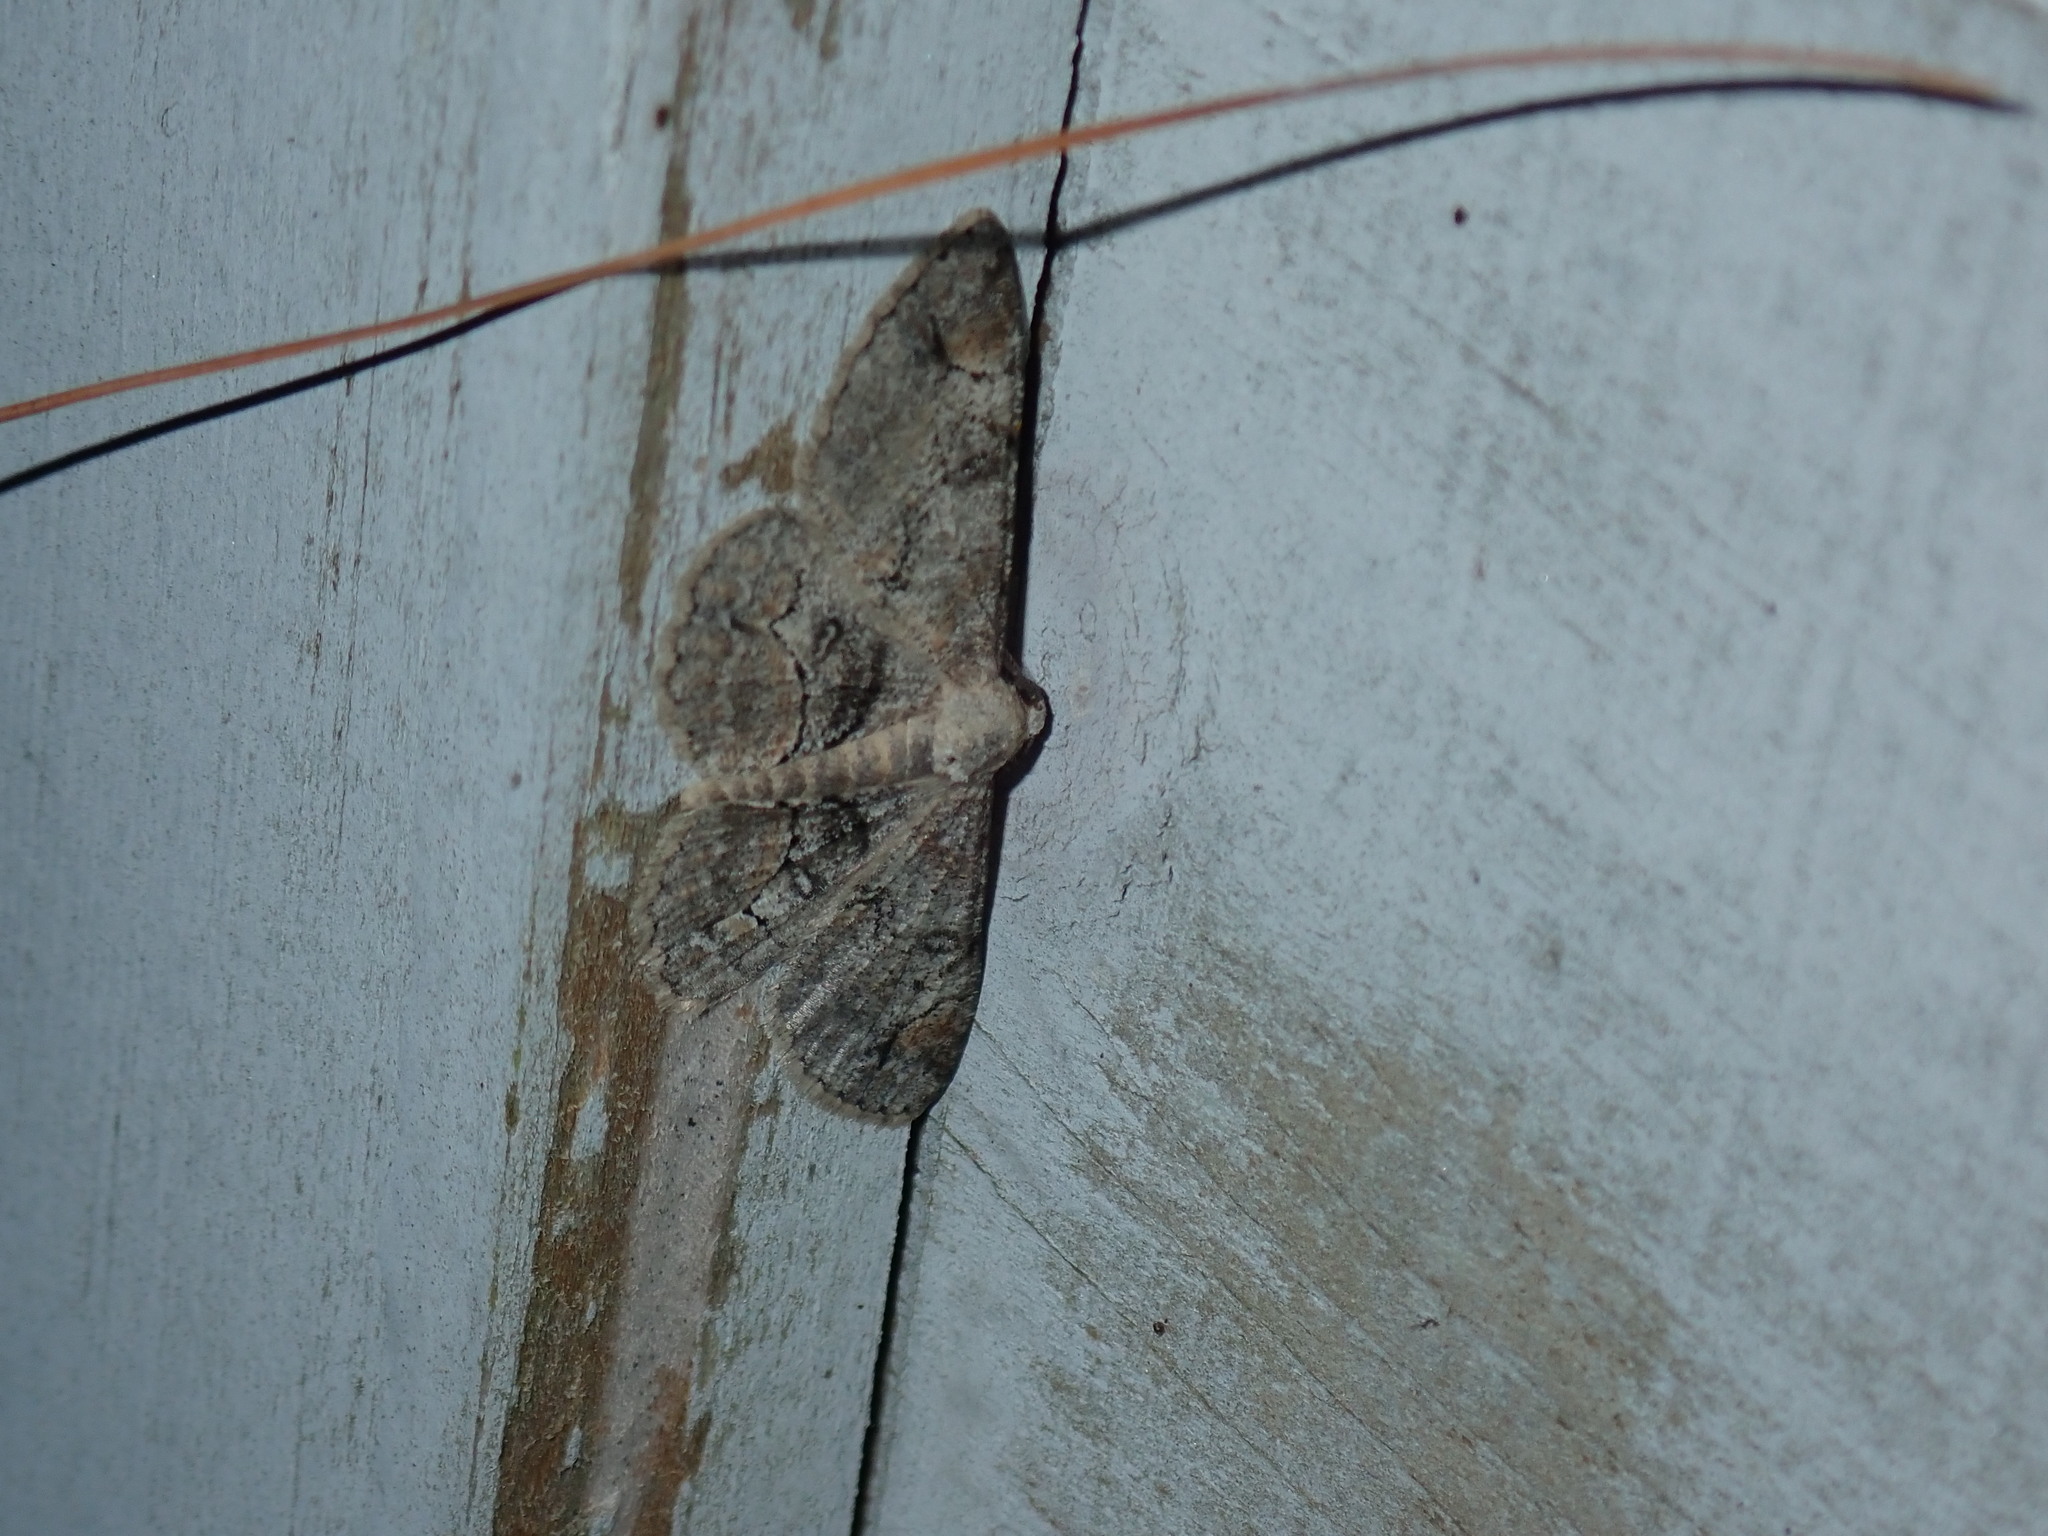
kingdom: Animalia
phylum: Arthropoda
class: Insecta
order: Lepidoptera
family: Geometridae
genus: Iridopsis
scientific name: Iridopsis larvaria
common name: Bent-line gray
